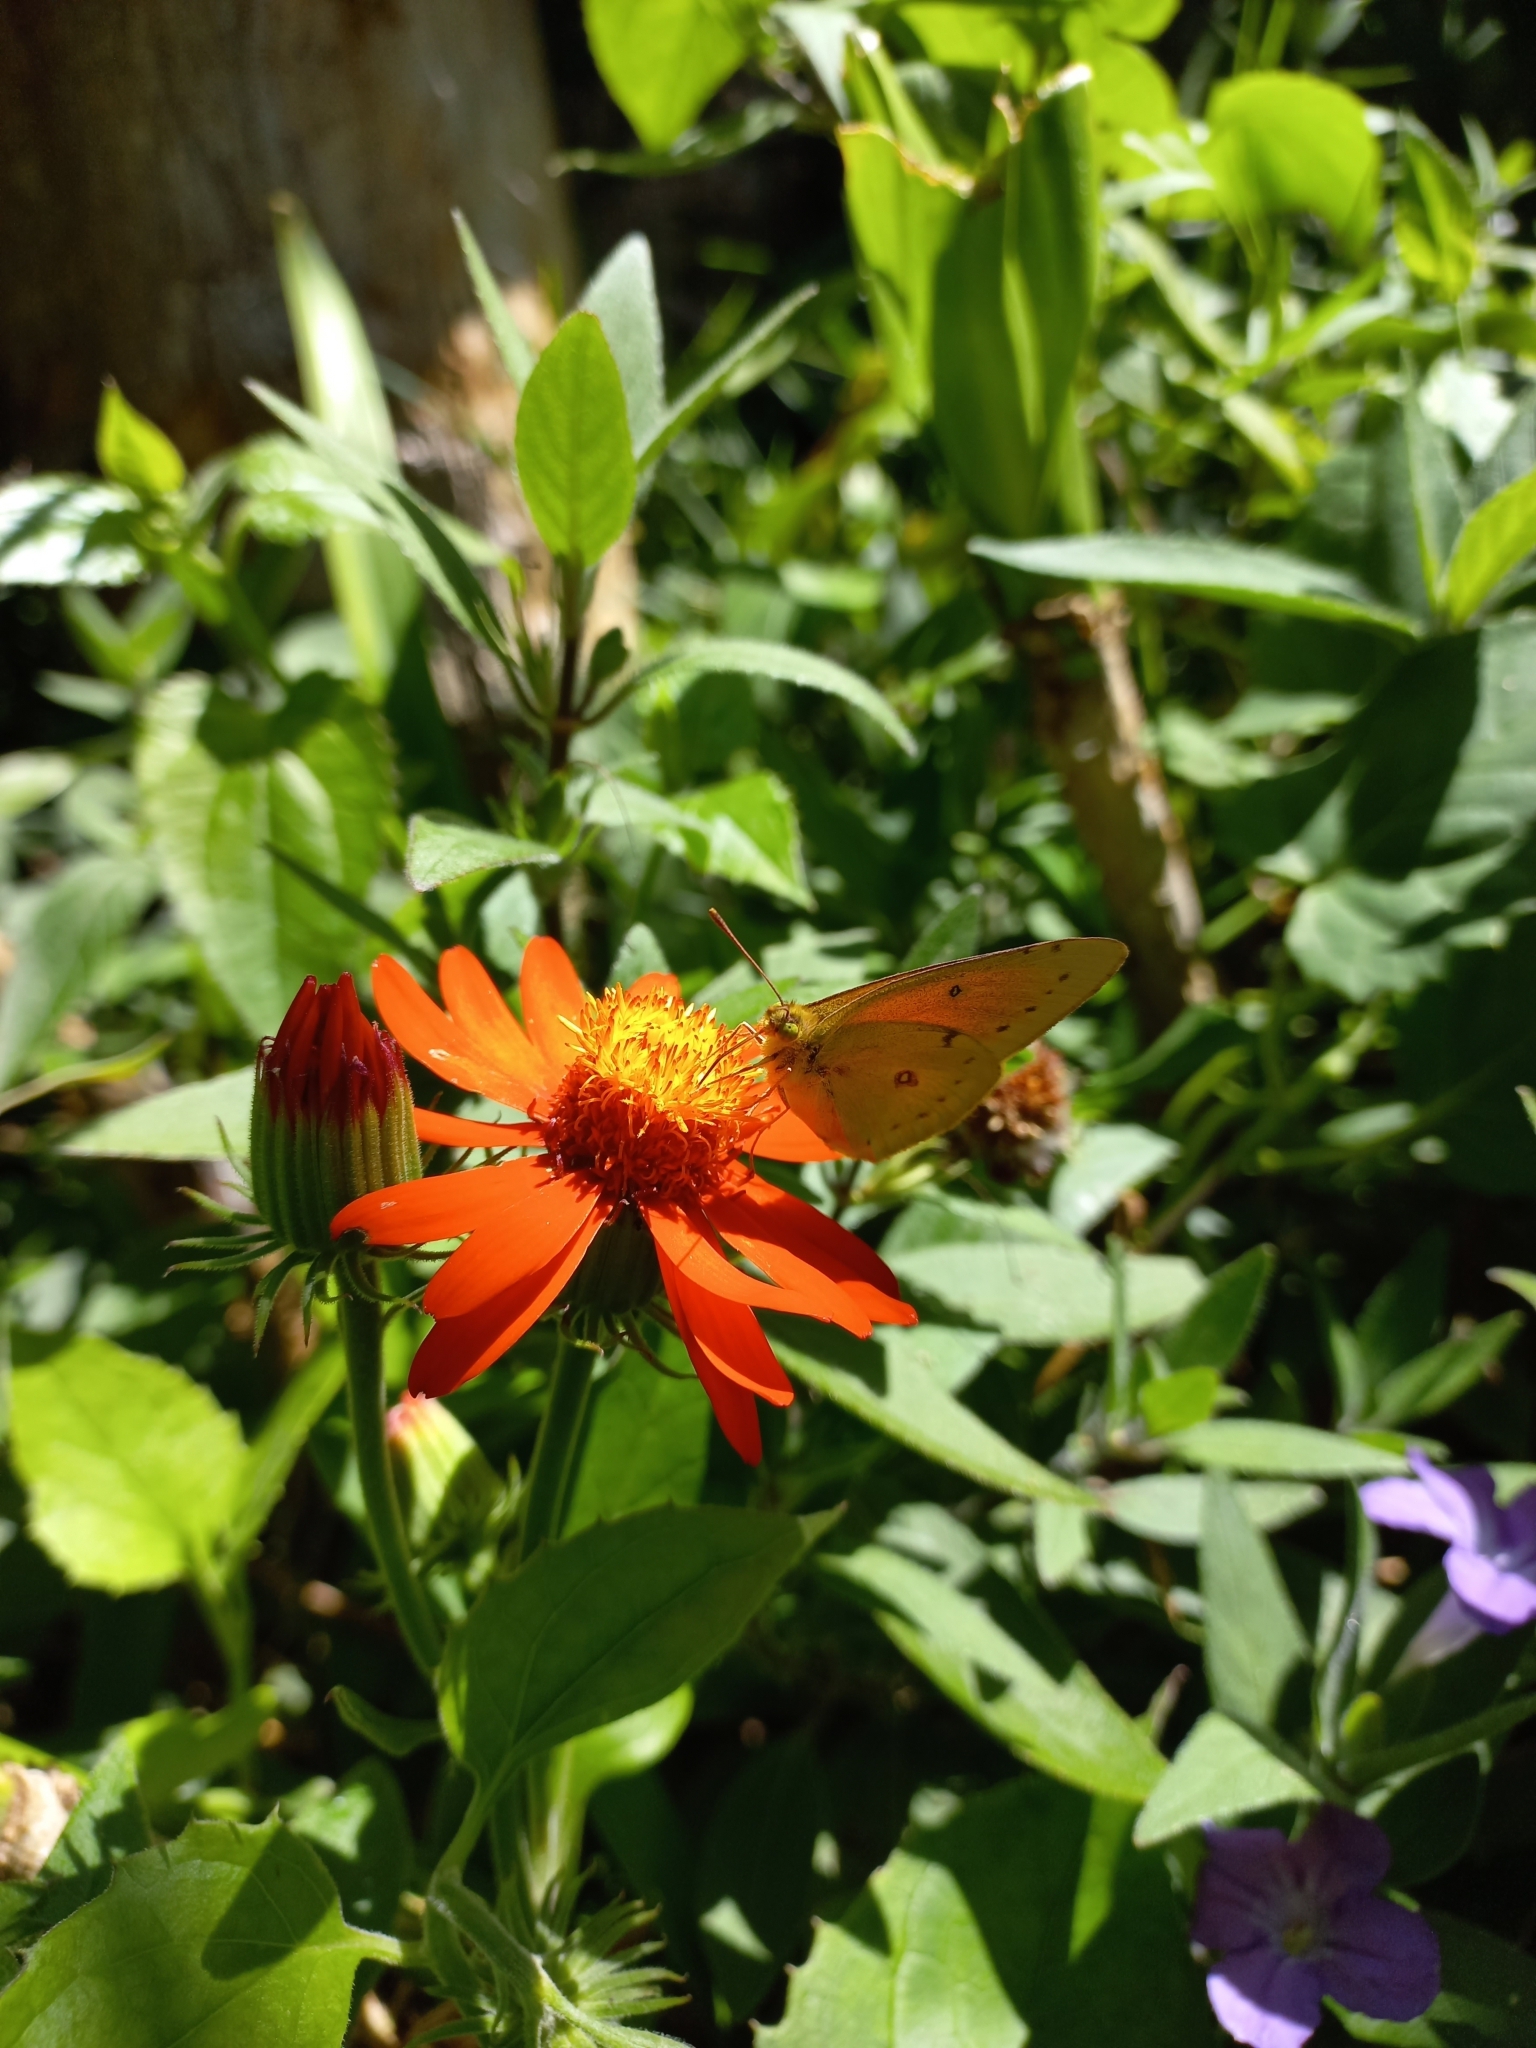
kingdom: Animalia
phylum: Arthropoda
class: Insecta
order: Lepidoptera
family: Pieridae
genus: Colias
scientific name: Colias lesbia
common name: Lesbia clouded yellow
